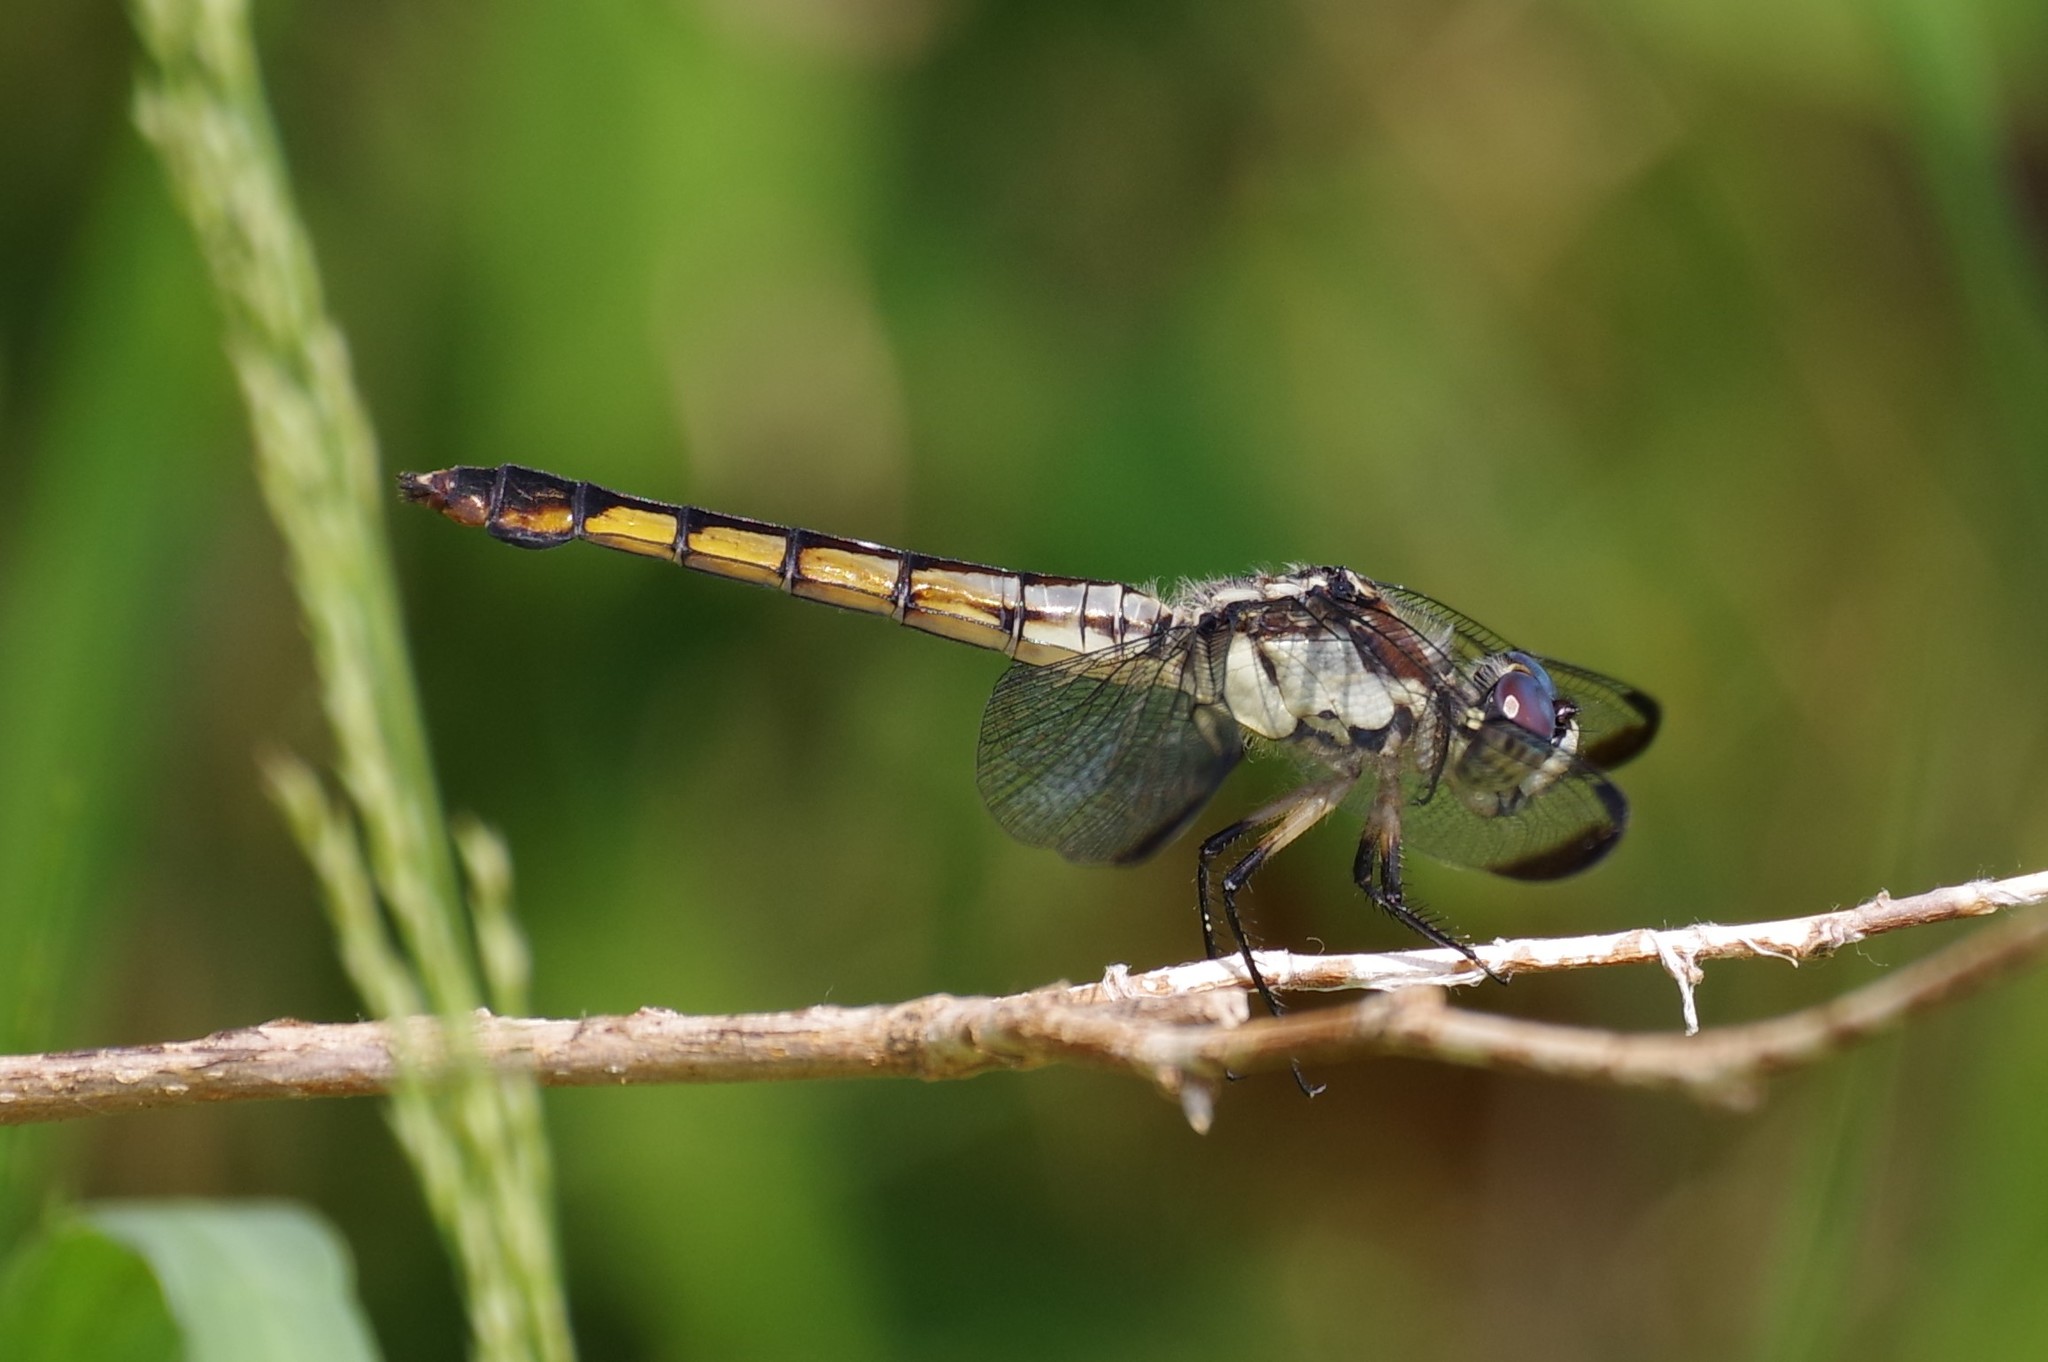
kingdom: Animalia
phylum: Arthropoda
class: Insecta
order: Odonata
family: Libellulidae
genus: Libellula
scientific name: Libellula vibrans
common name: Great blue skimmer
